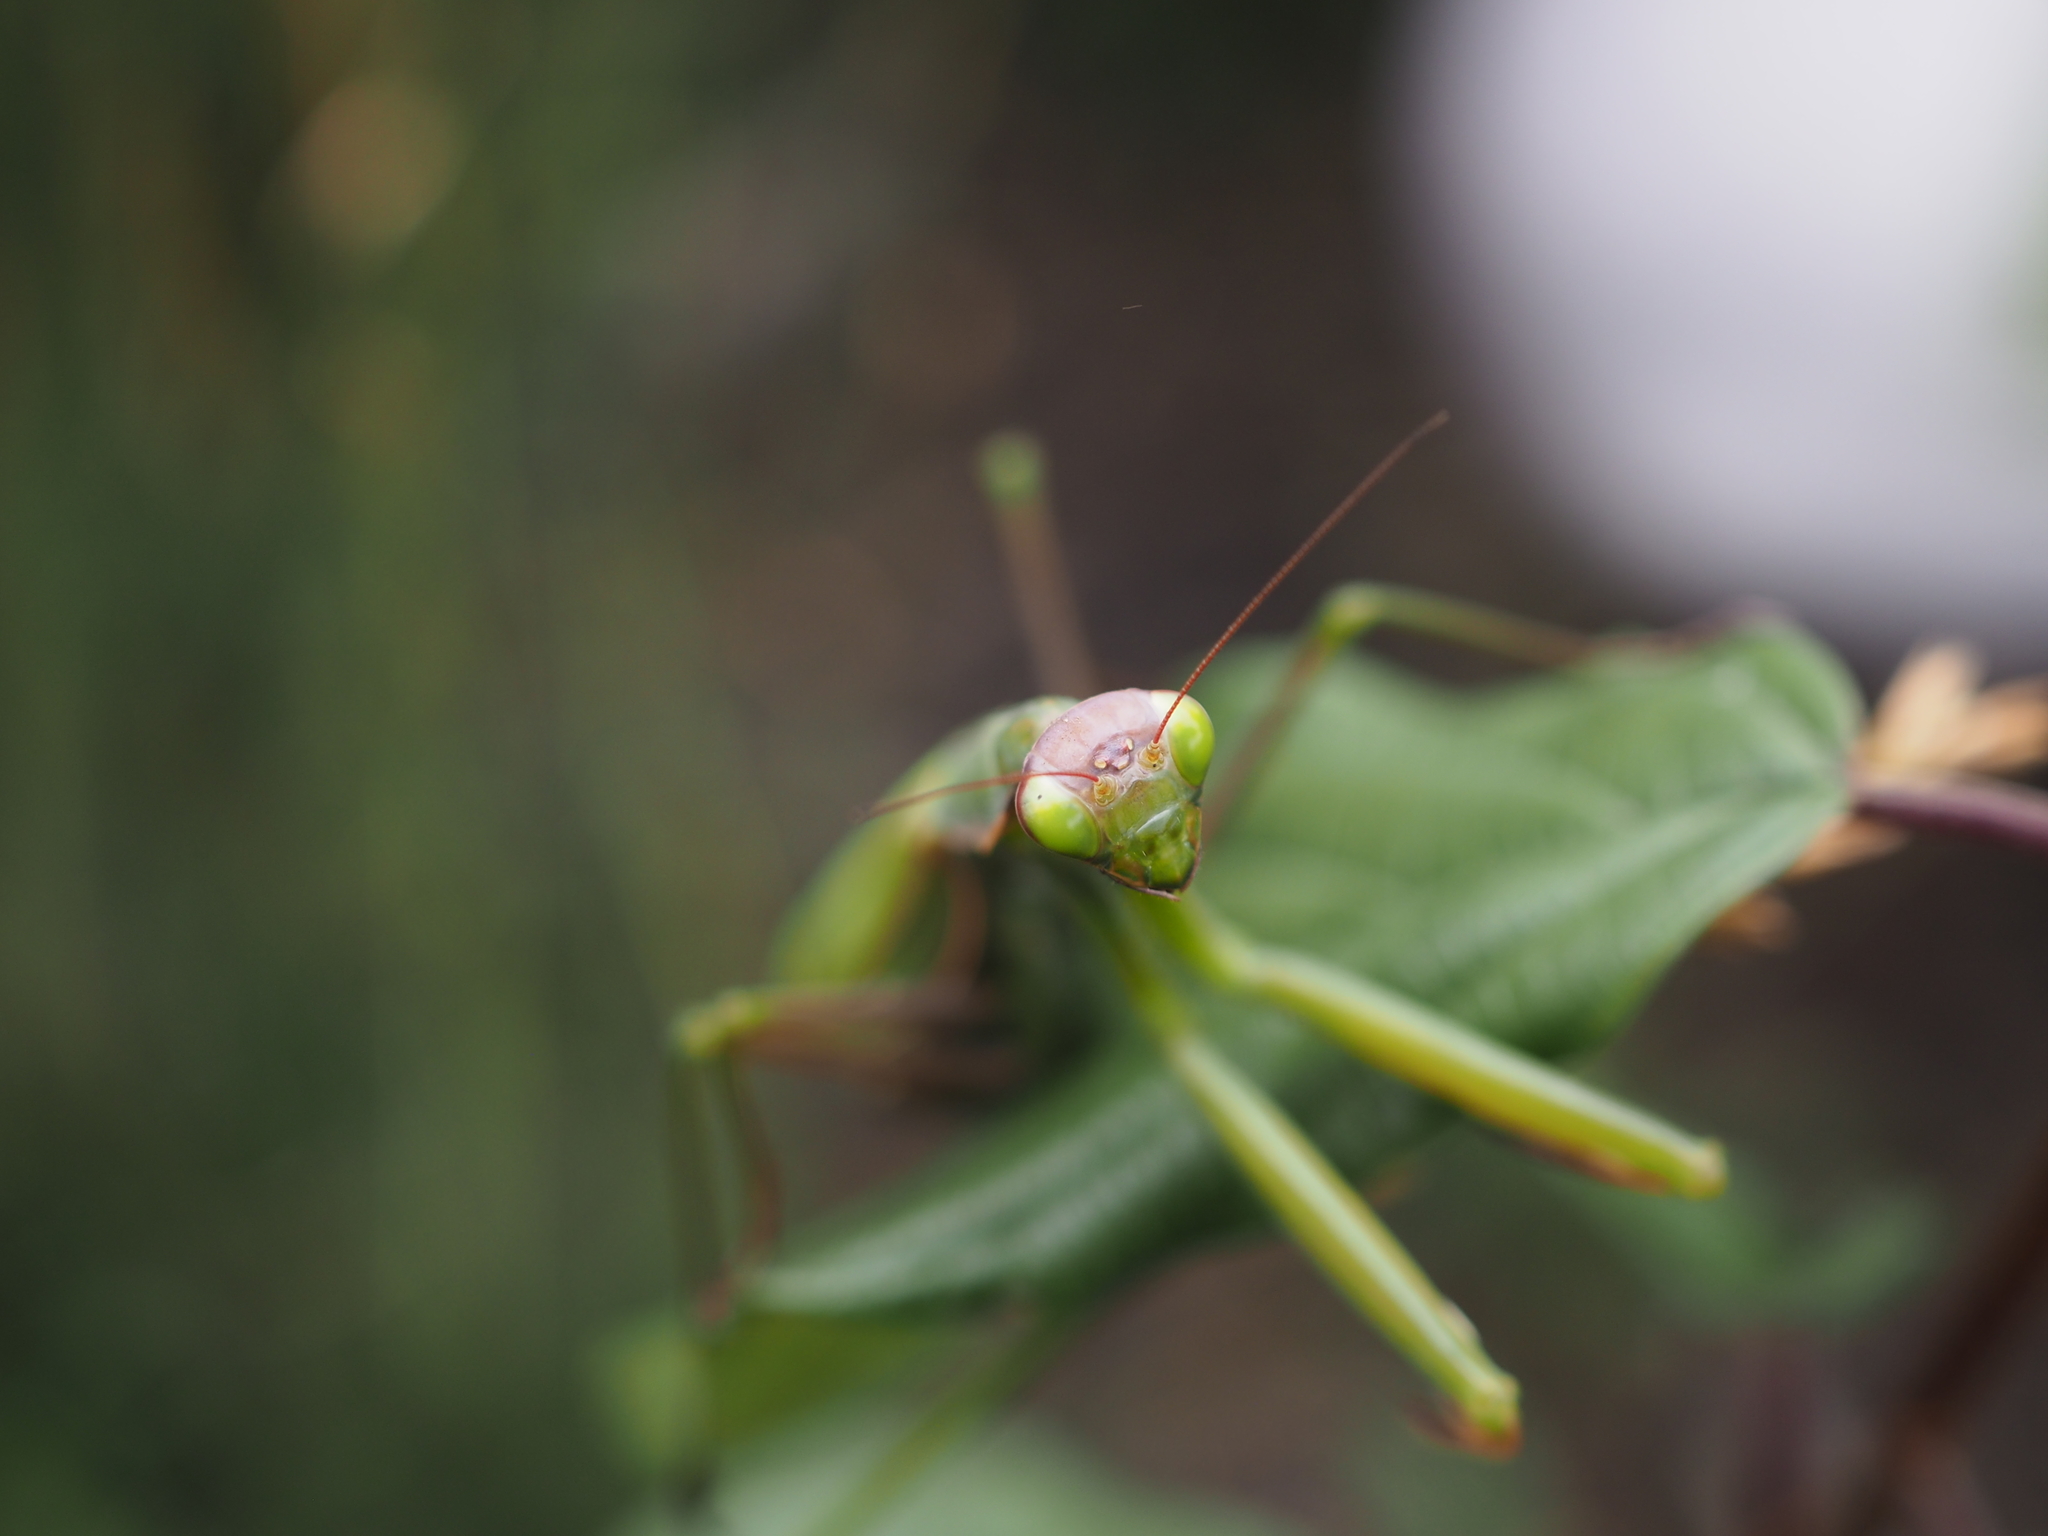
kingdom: Animalia
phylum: Arthropoda
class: Insecta
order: Mantodea
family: Mantidae
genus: Mantis
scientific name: Mantis religiosa
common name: Praying mantis
